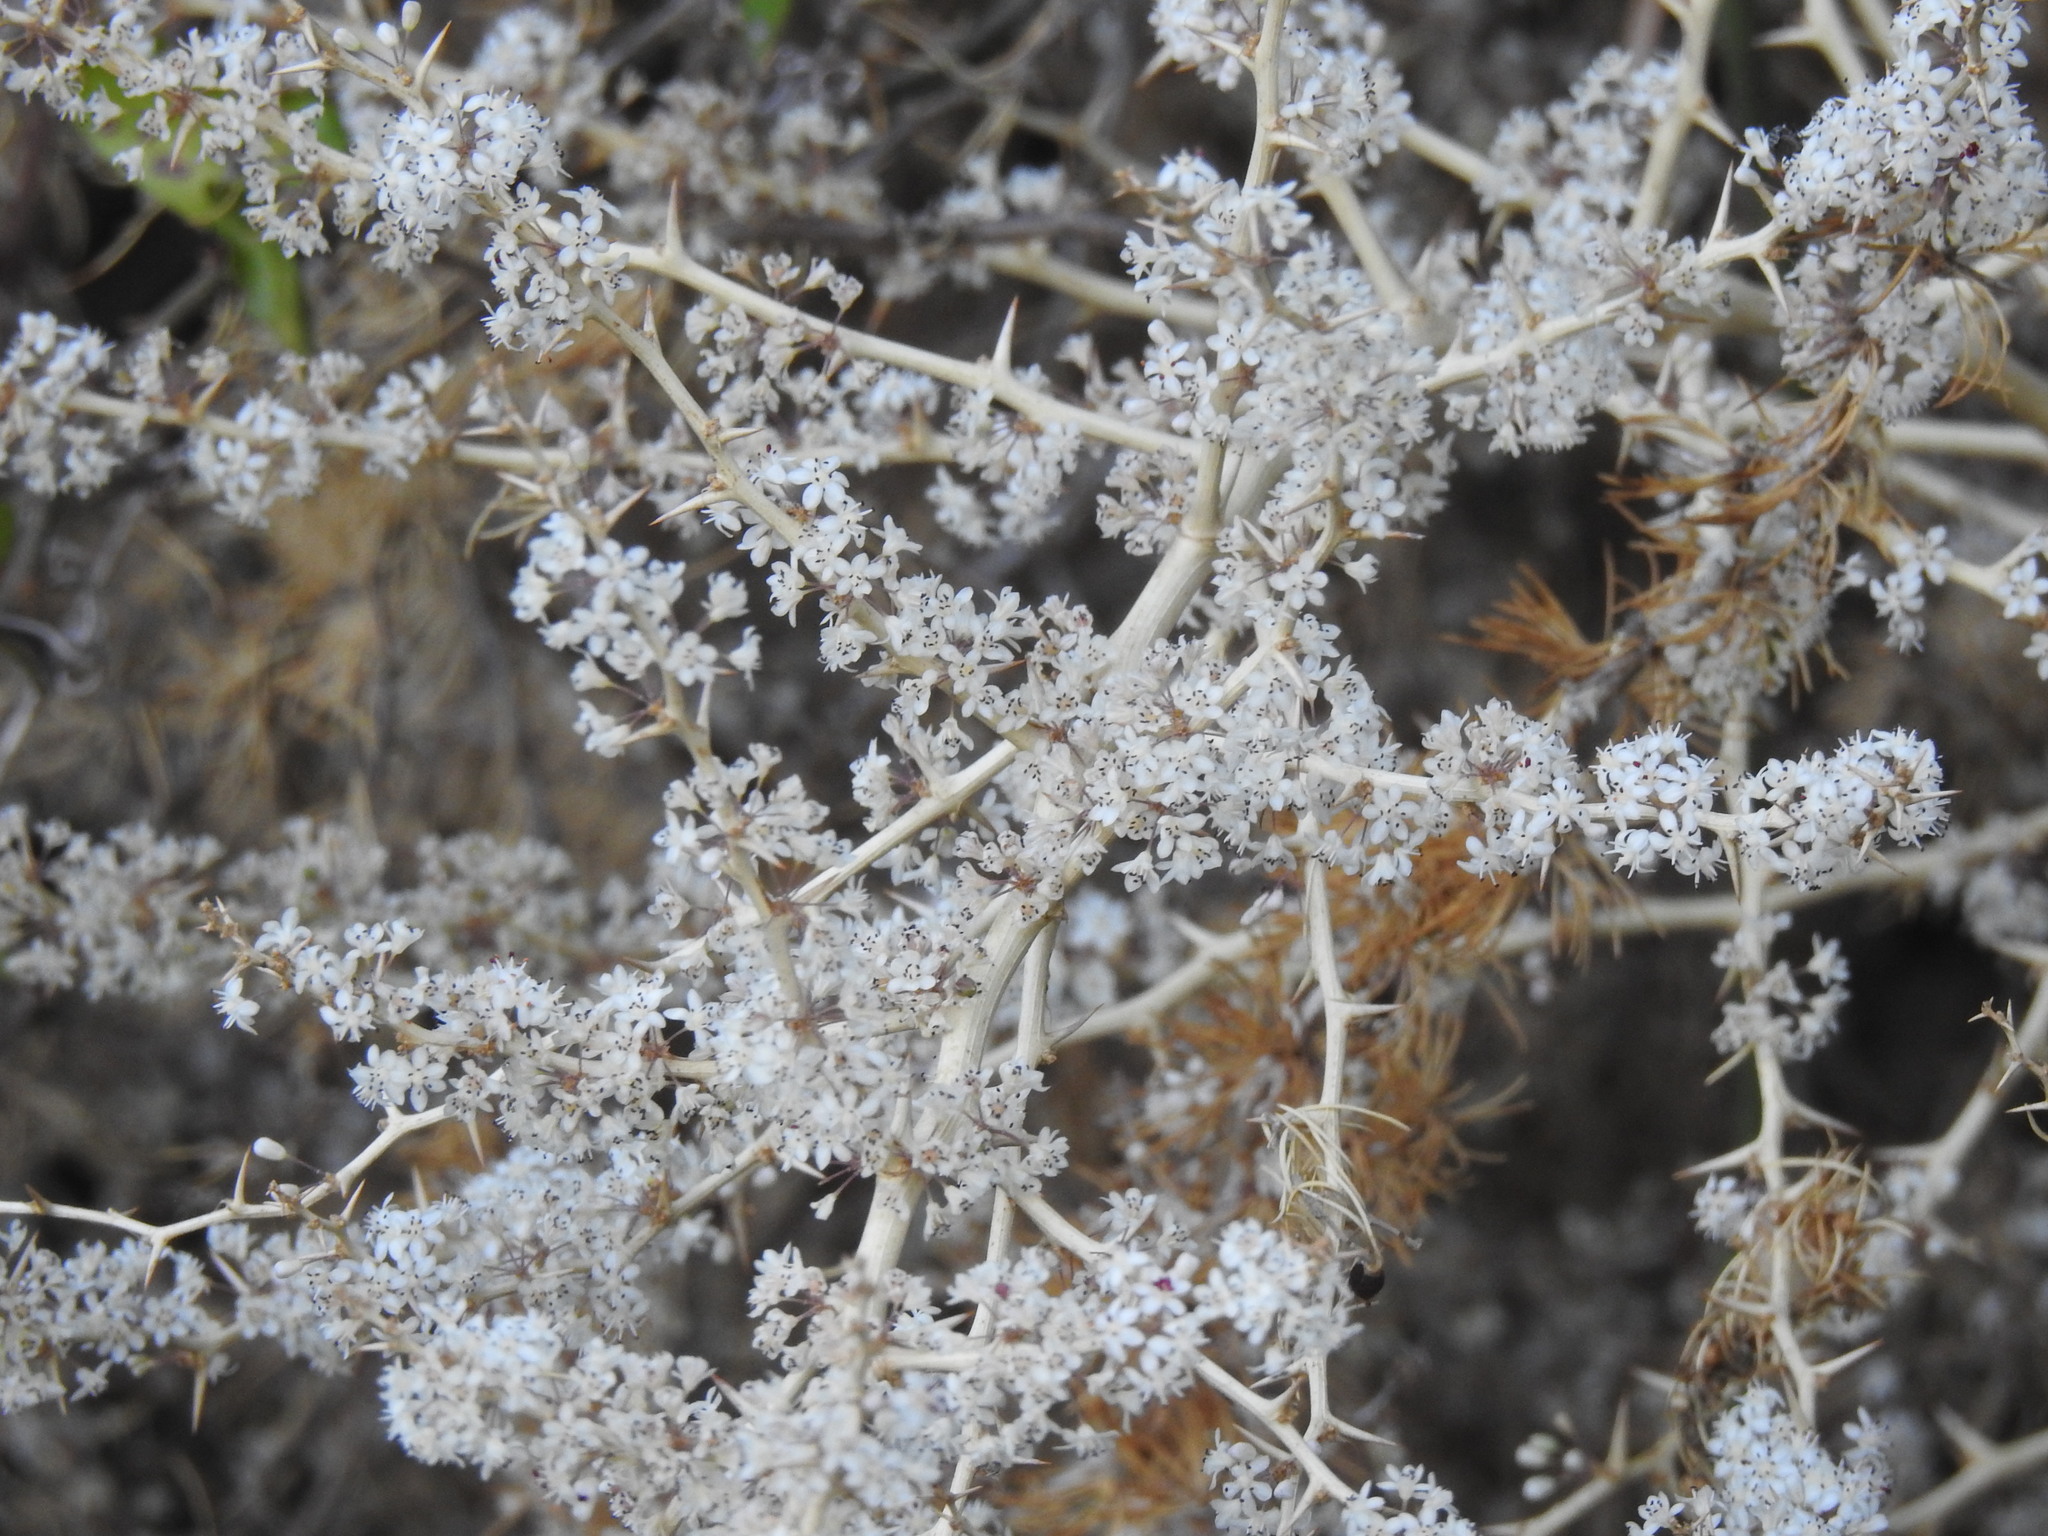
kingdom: Plantae
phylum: Tracheophyta
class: Liliopsida
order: Asparagales
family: Asparagaceae
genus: Asparagus
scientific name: Asparagus albus
